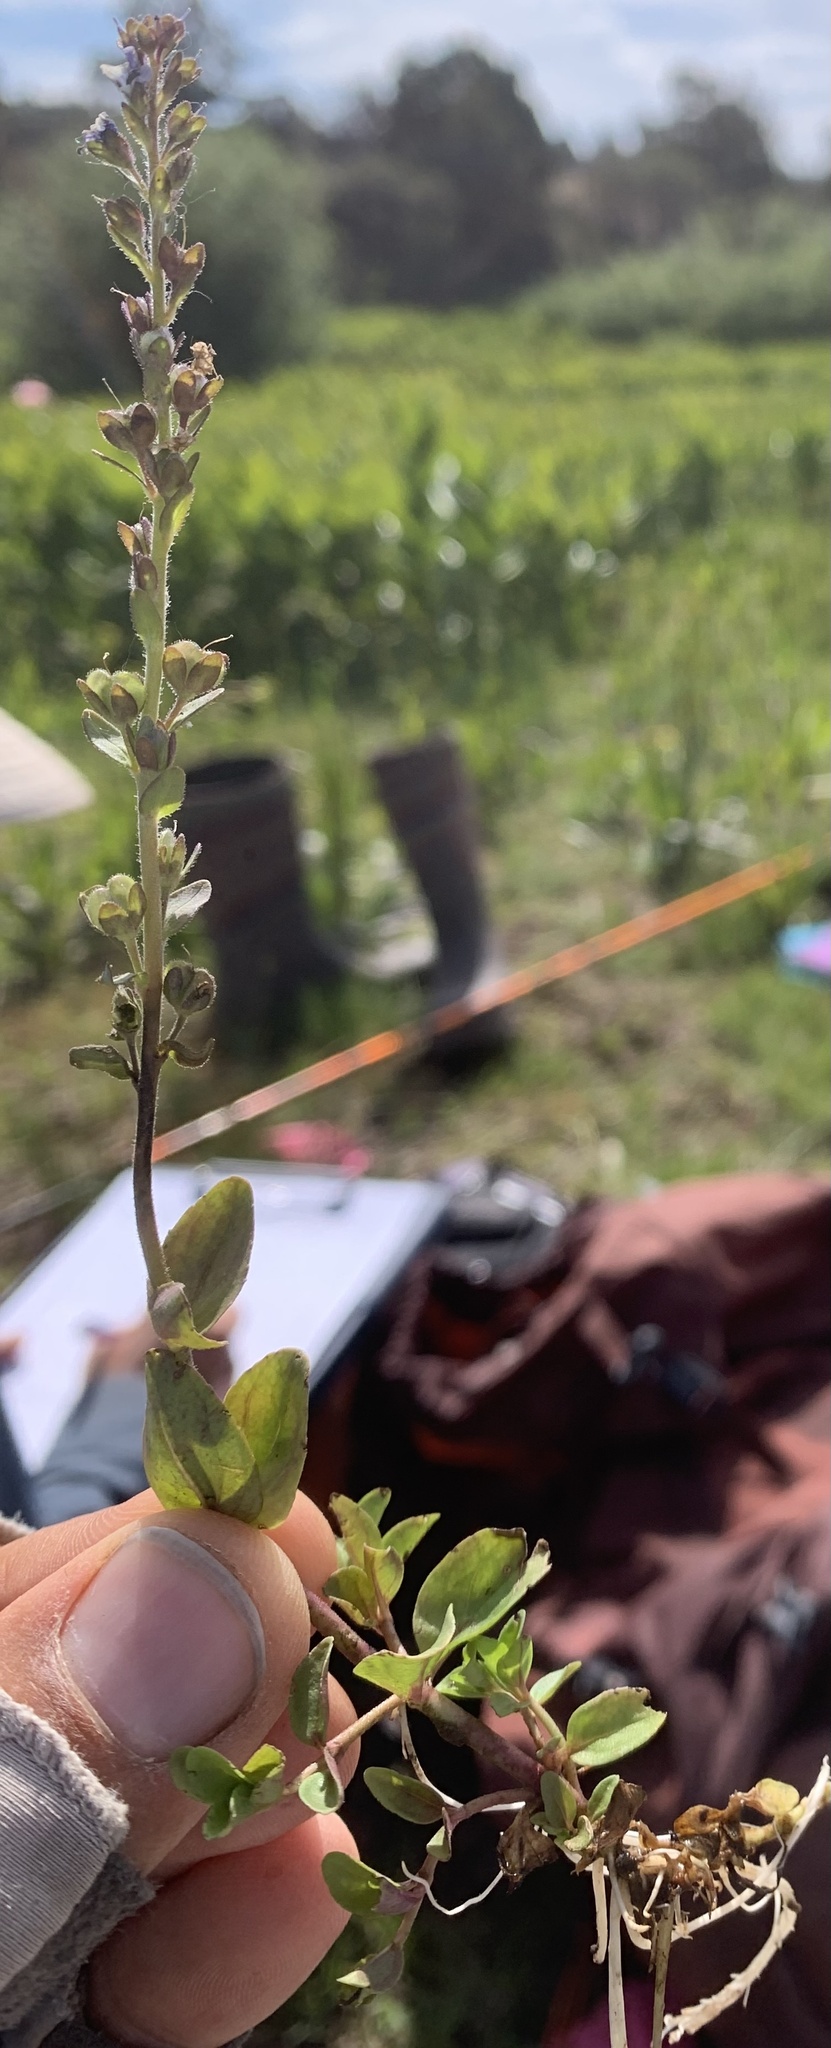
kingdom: Plantae
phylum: Tracheophyta
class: Magnoliopsida
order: Lamiales
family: Plantaginaceae
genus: Veronica
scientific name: Veronica serpyllifolia
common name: Thyme-leaved speedwell
